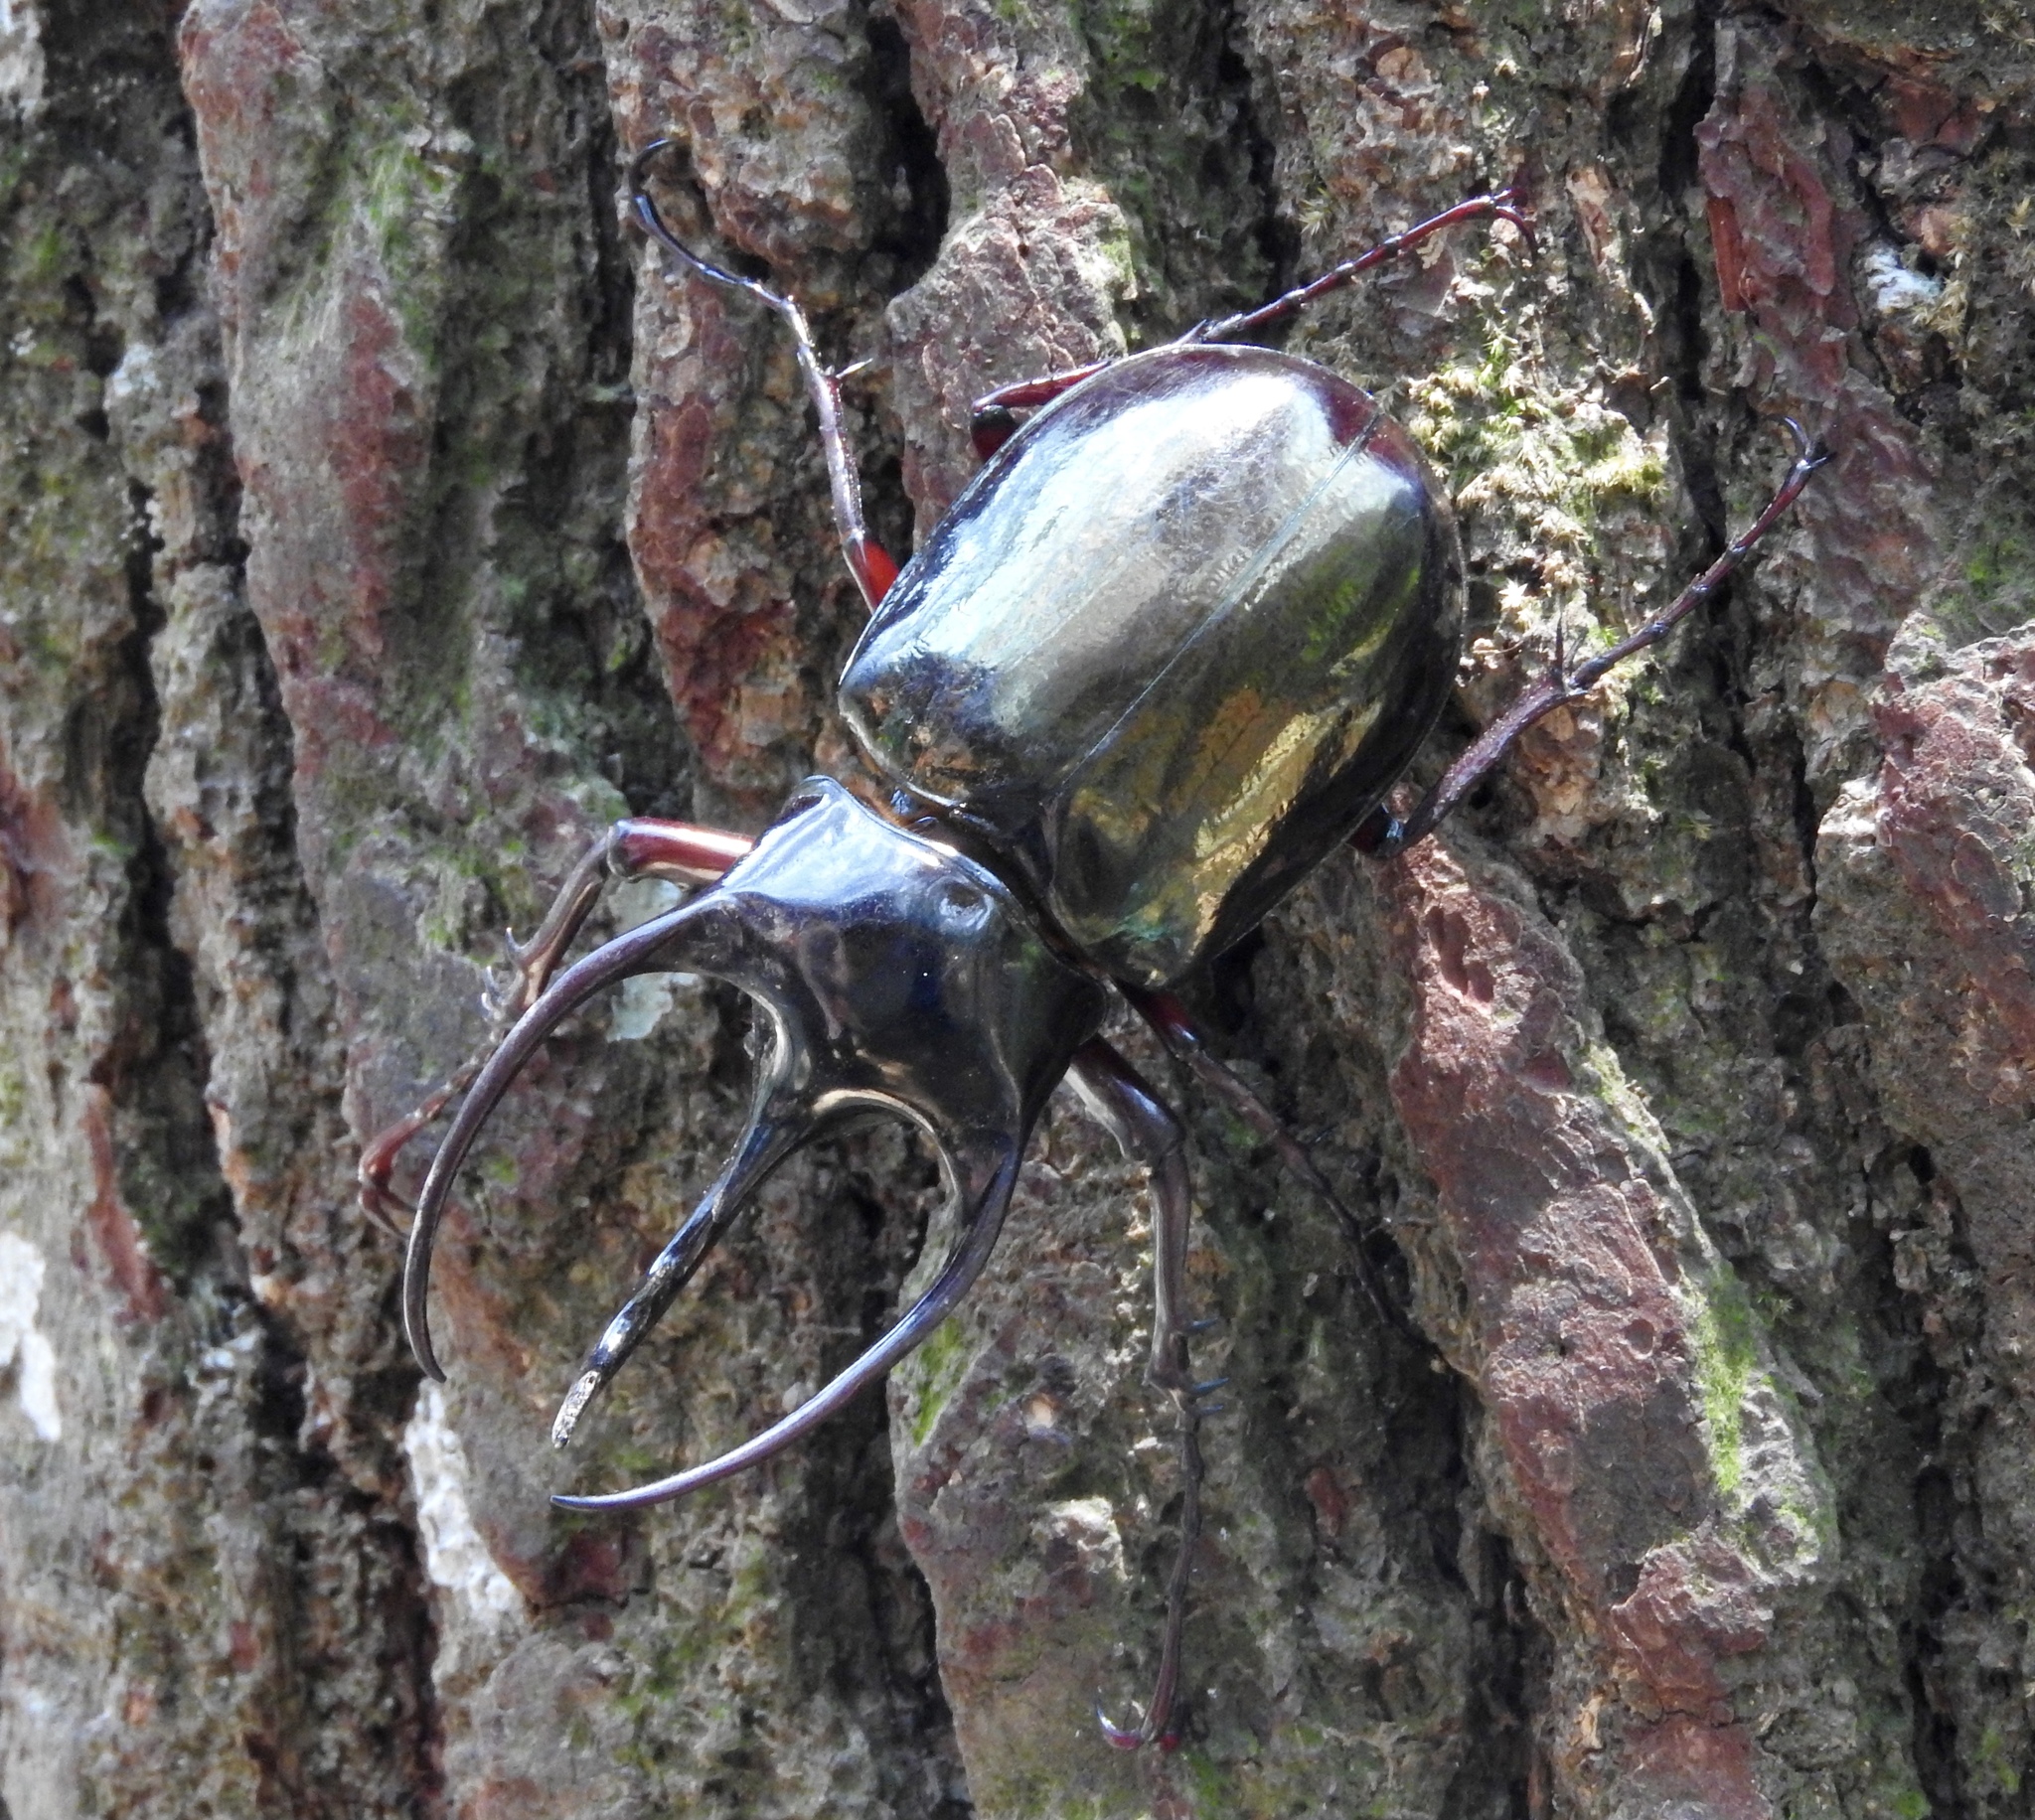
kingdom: Animalia
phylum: Arthropoda
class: Insecta
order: Coleoptera
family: Scarabaeidae
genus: Chalcosoma
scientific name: Chalcosoma chiron
